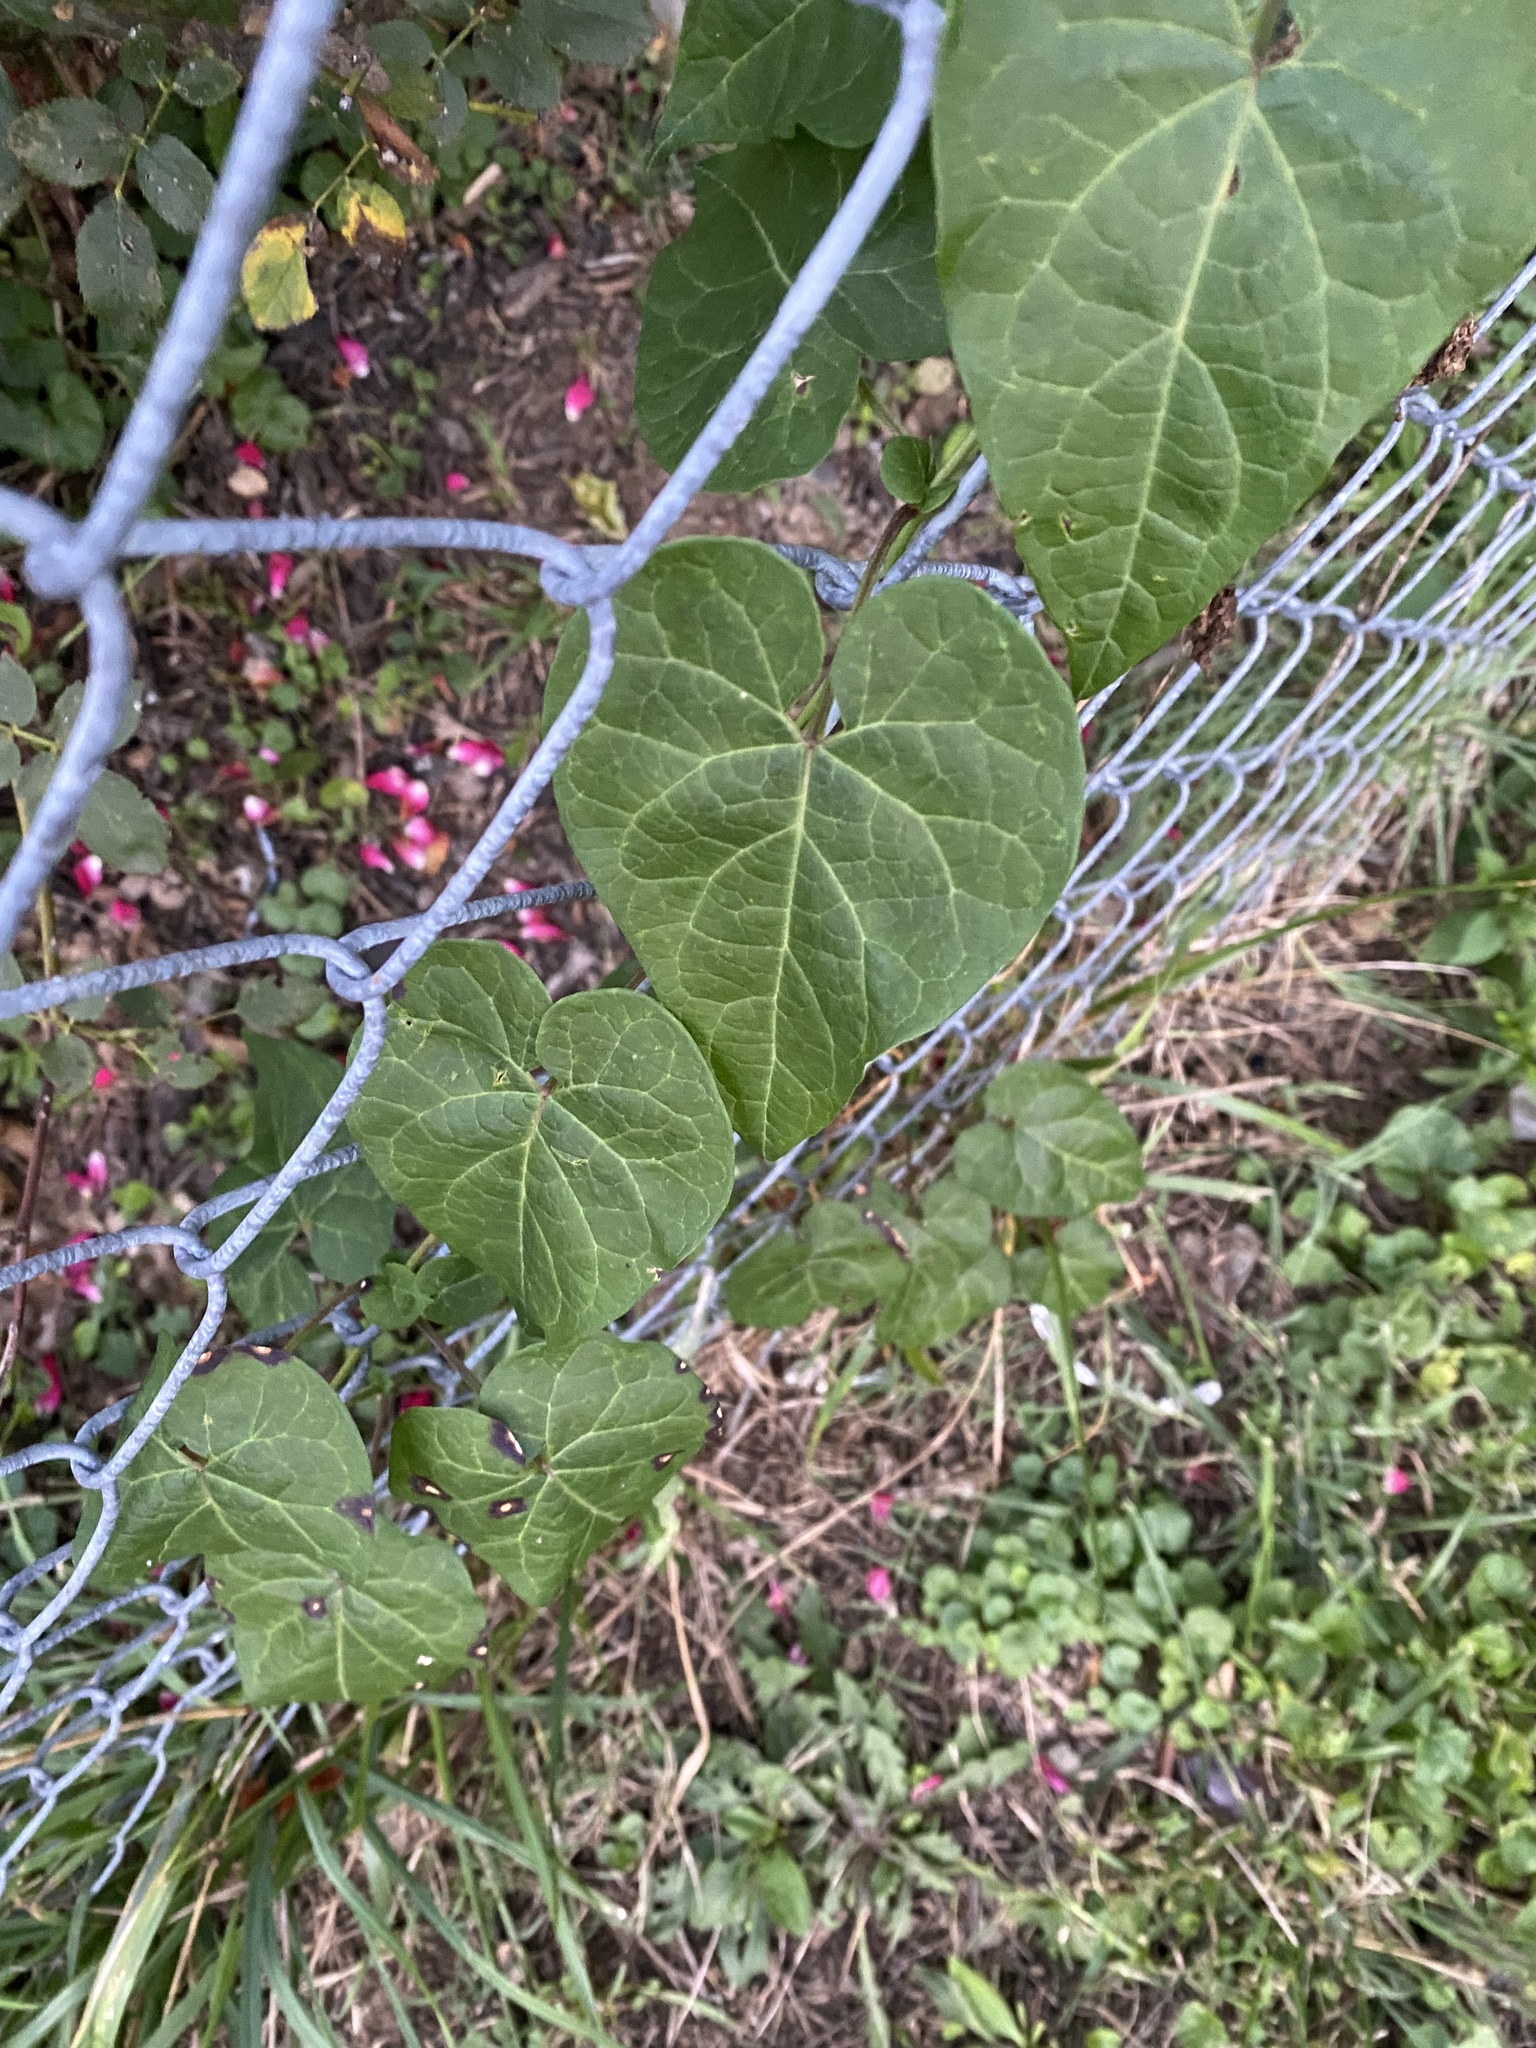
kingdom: Plantae
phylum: Tracheophyta
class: Magnoliopsida
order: Gentianales
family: Apocynaceae
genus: Cynanchum
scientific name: Cynanchum laeve
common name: Sandvine
